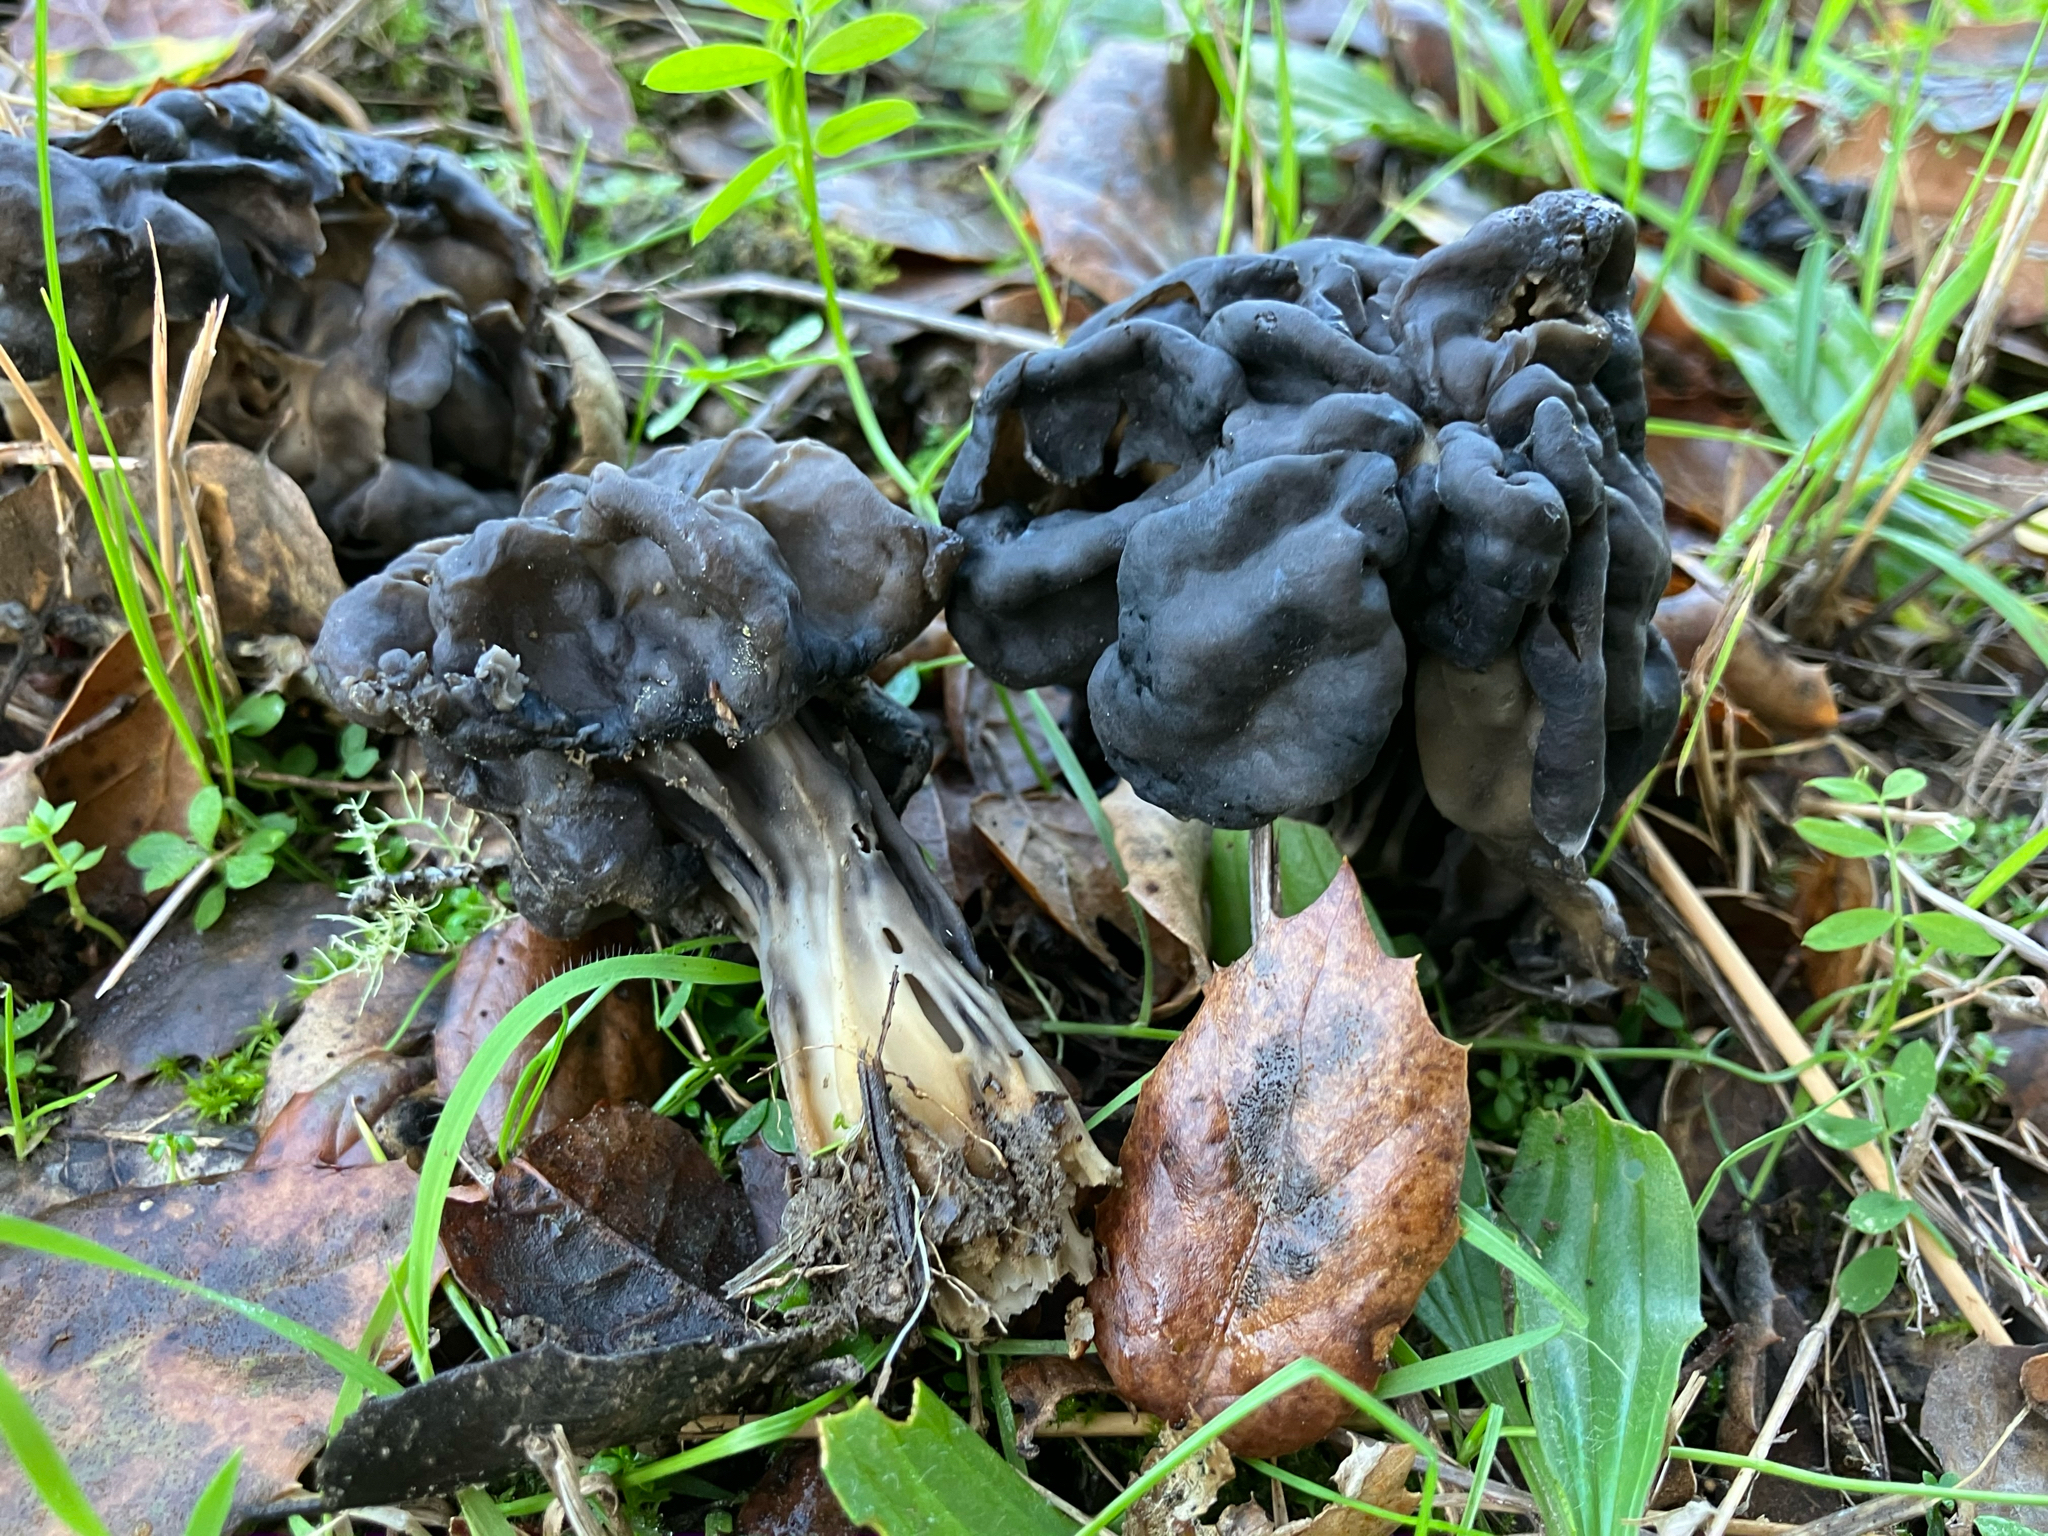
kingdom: Fungi
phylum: Ascomycota
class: Pezizomycetes
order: Pezizales
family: Helvellaceae
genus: Helvella
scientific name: Helvella dryophila
